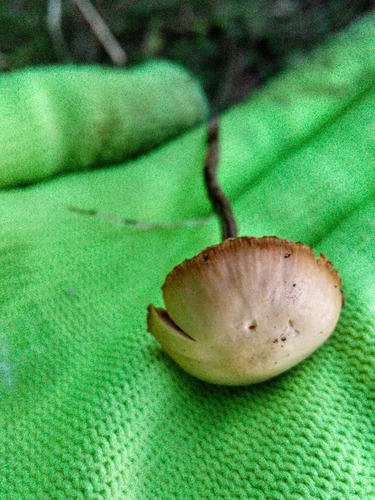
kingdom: Fungi
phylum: Basidiomycota
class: Agaricomycetes
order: Agaricales
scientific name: Agaricales
